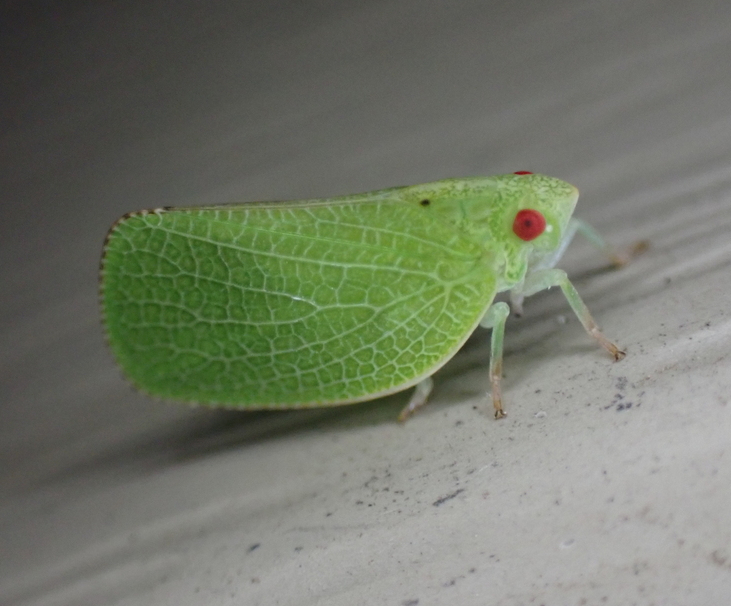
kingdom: Animalia
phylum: Arthropoda
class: Insecta
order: Hemiptera
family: Acanaloniidae
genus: Acanalonia
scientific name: Acanalonia conica
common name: Green cone-headed planthopper
